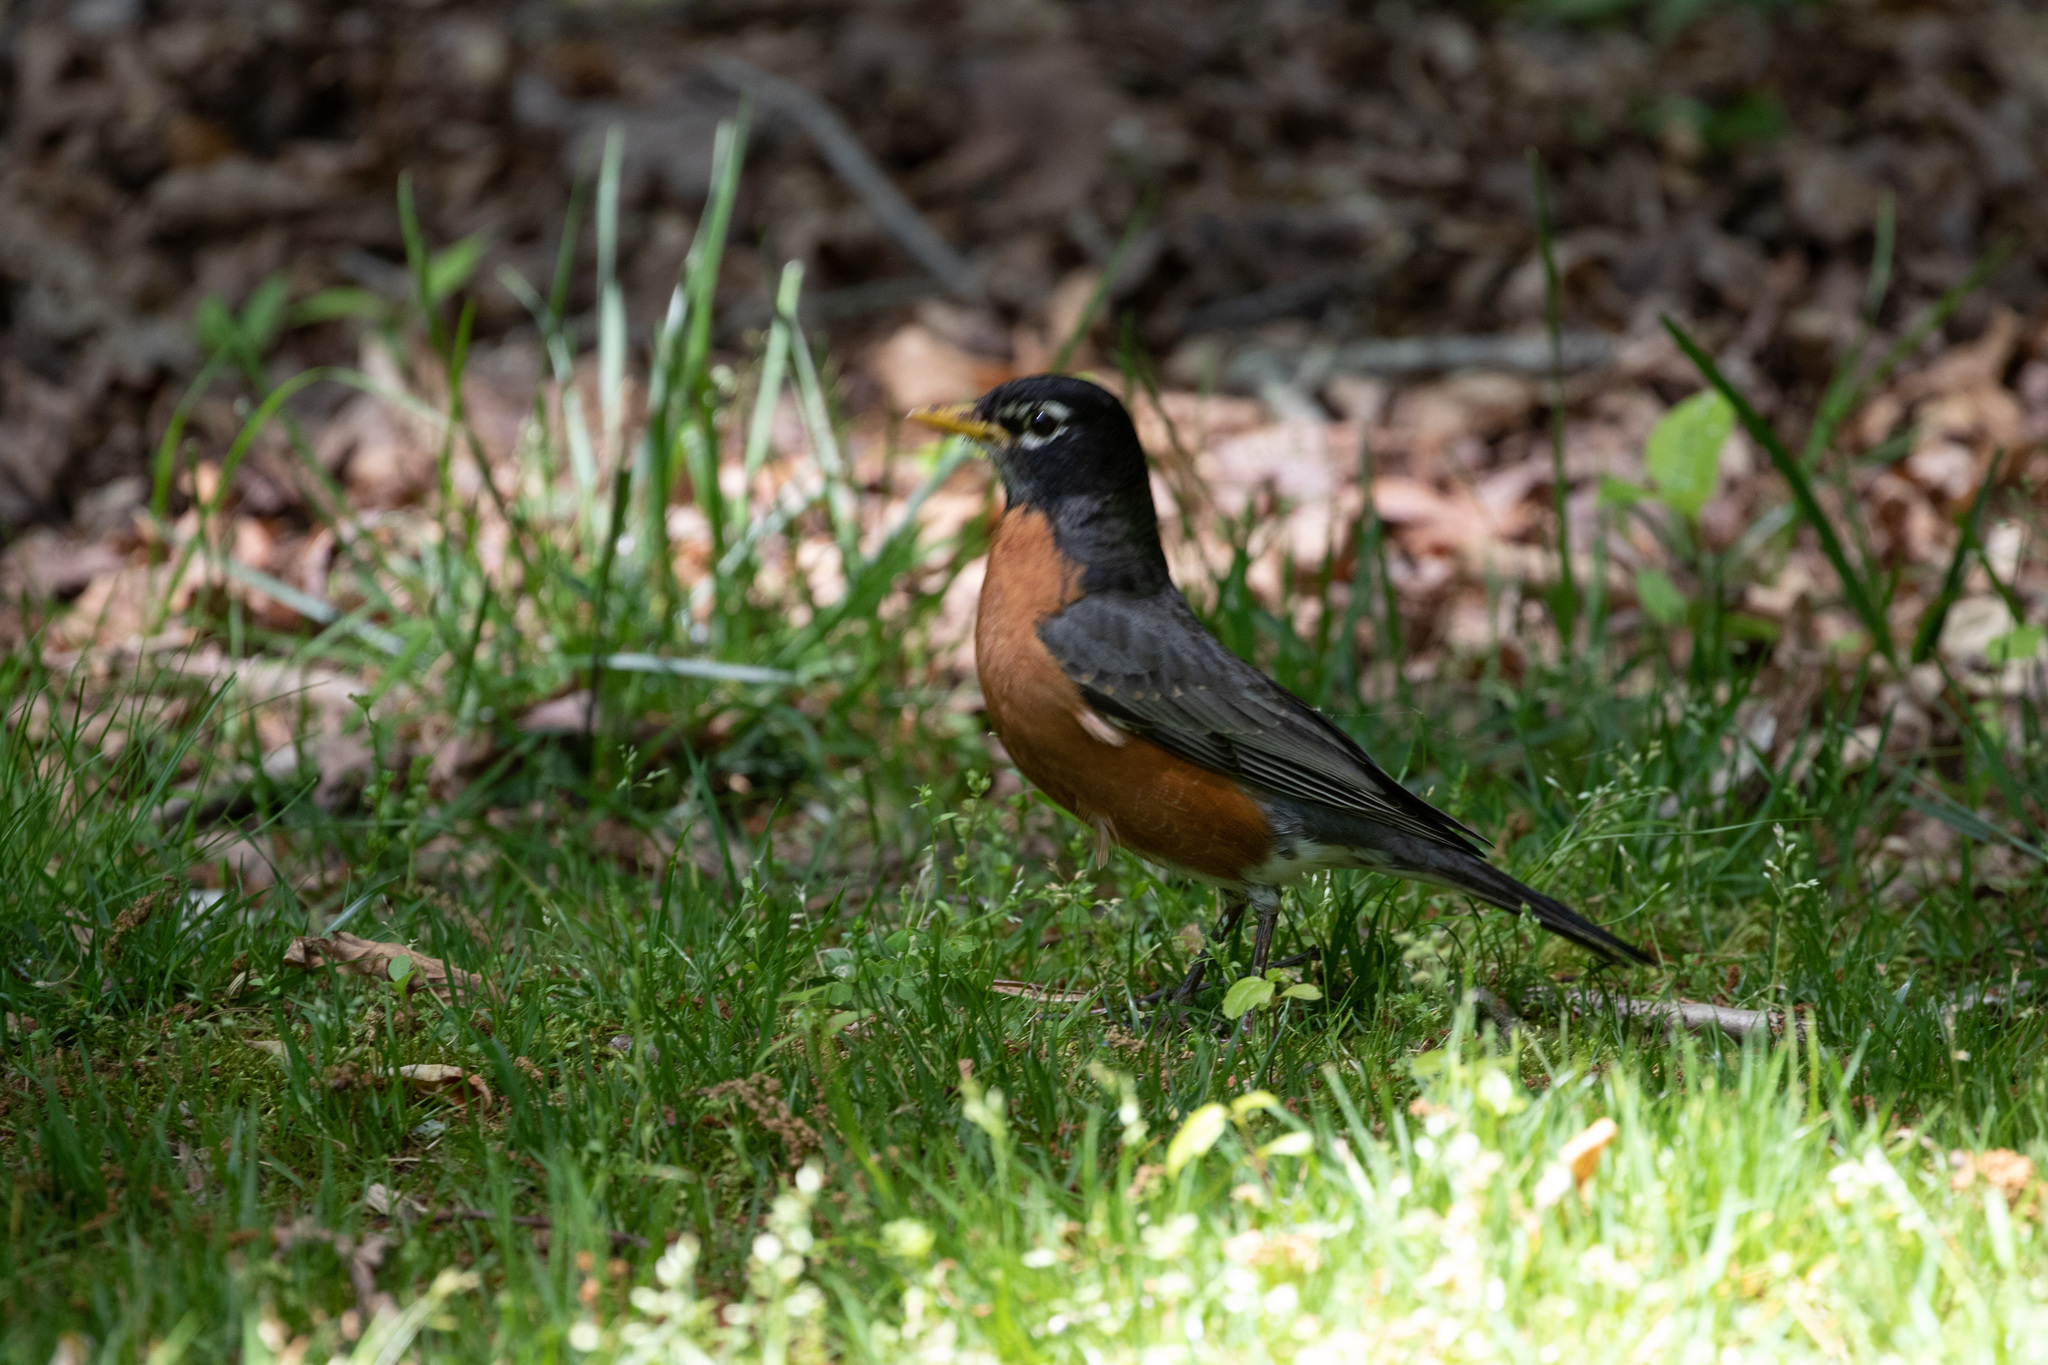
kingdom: Animalia
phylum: Chordata
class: Aves
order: Passeriformes
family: Turdidae
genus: Turdus
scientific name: Turdus migratorius
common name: American robin
